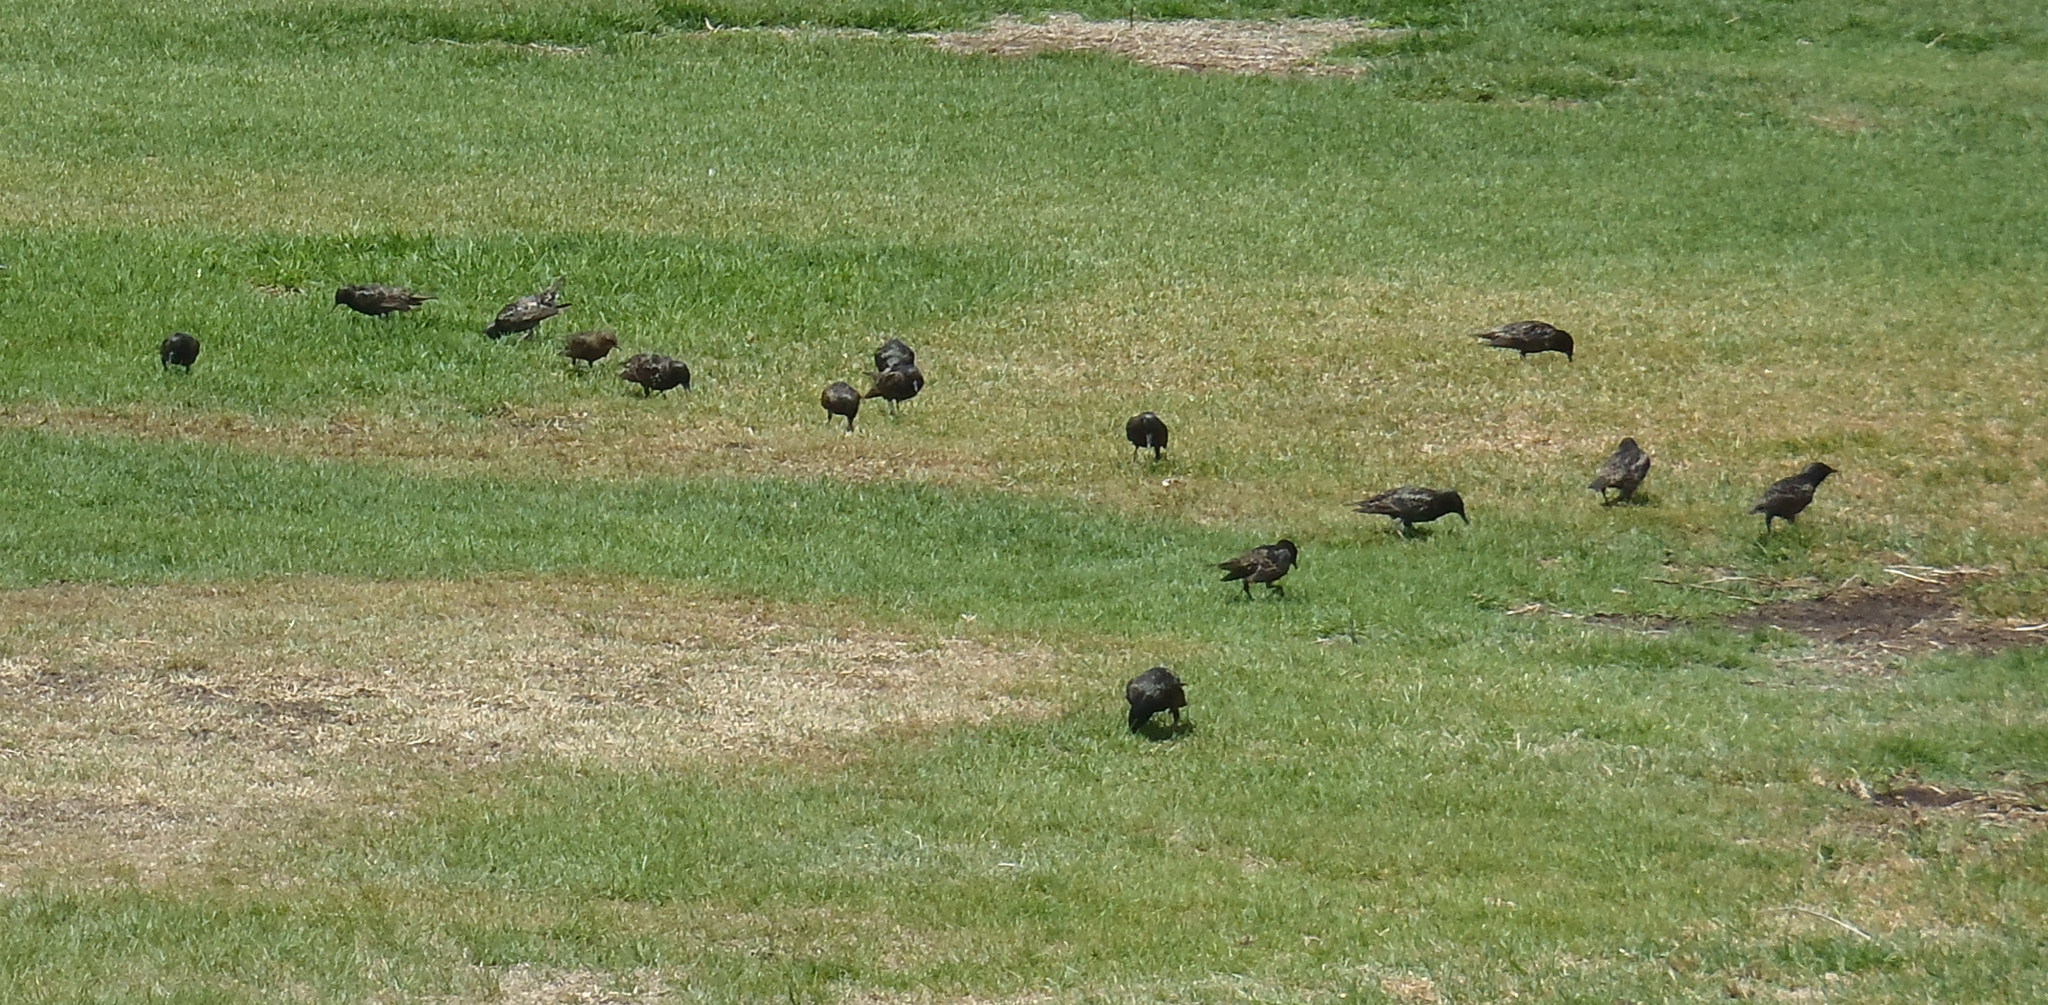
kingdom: Animalia
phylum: Chordata
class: Aves
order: Passeriformes
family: Sturnidae
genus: Sturnus
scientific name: Sturnus vulgaris
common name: Common starling
